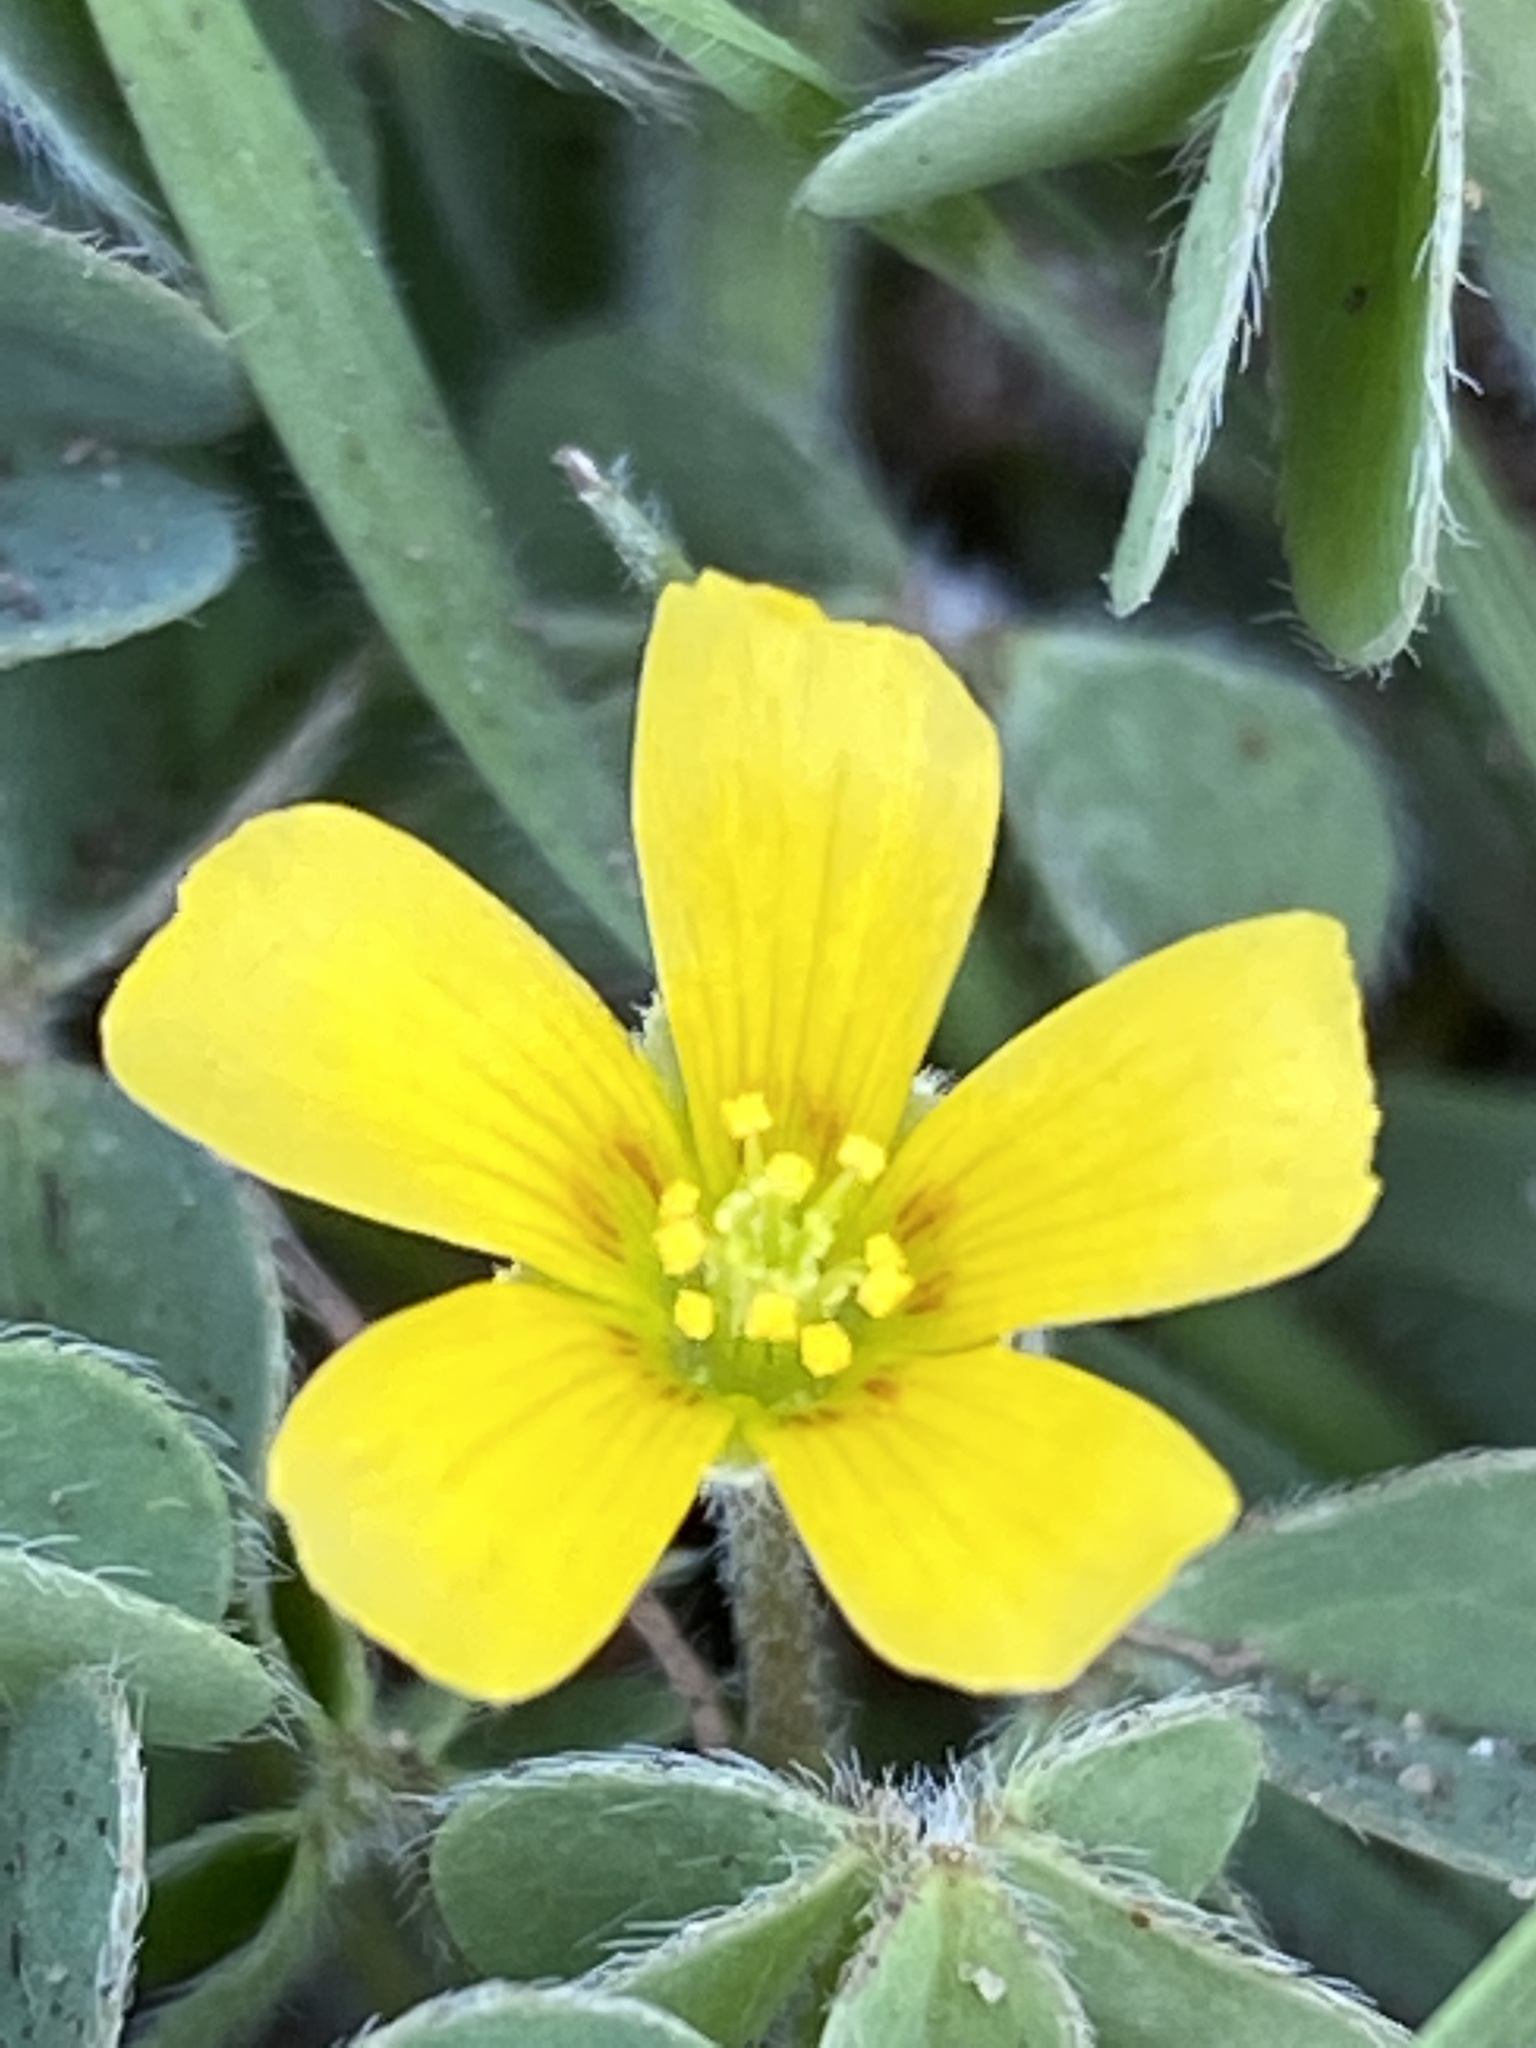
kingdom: Plantae
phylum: Tracheophyta
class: Magnoliopsida
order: Oxalidales
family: Oxalidaceae
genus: Oxalis
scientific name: Oxalis corniculata
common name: Procumbent yellow-sorrel
